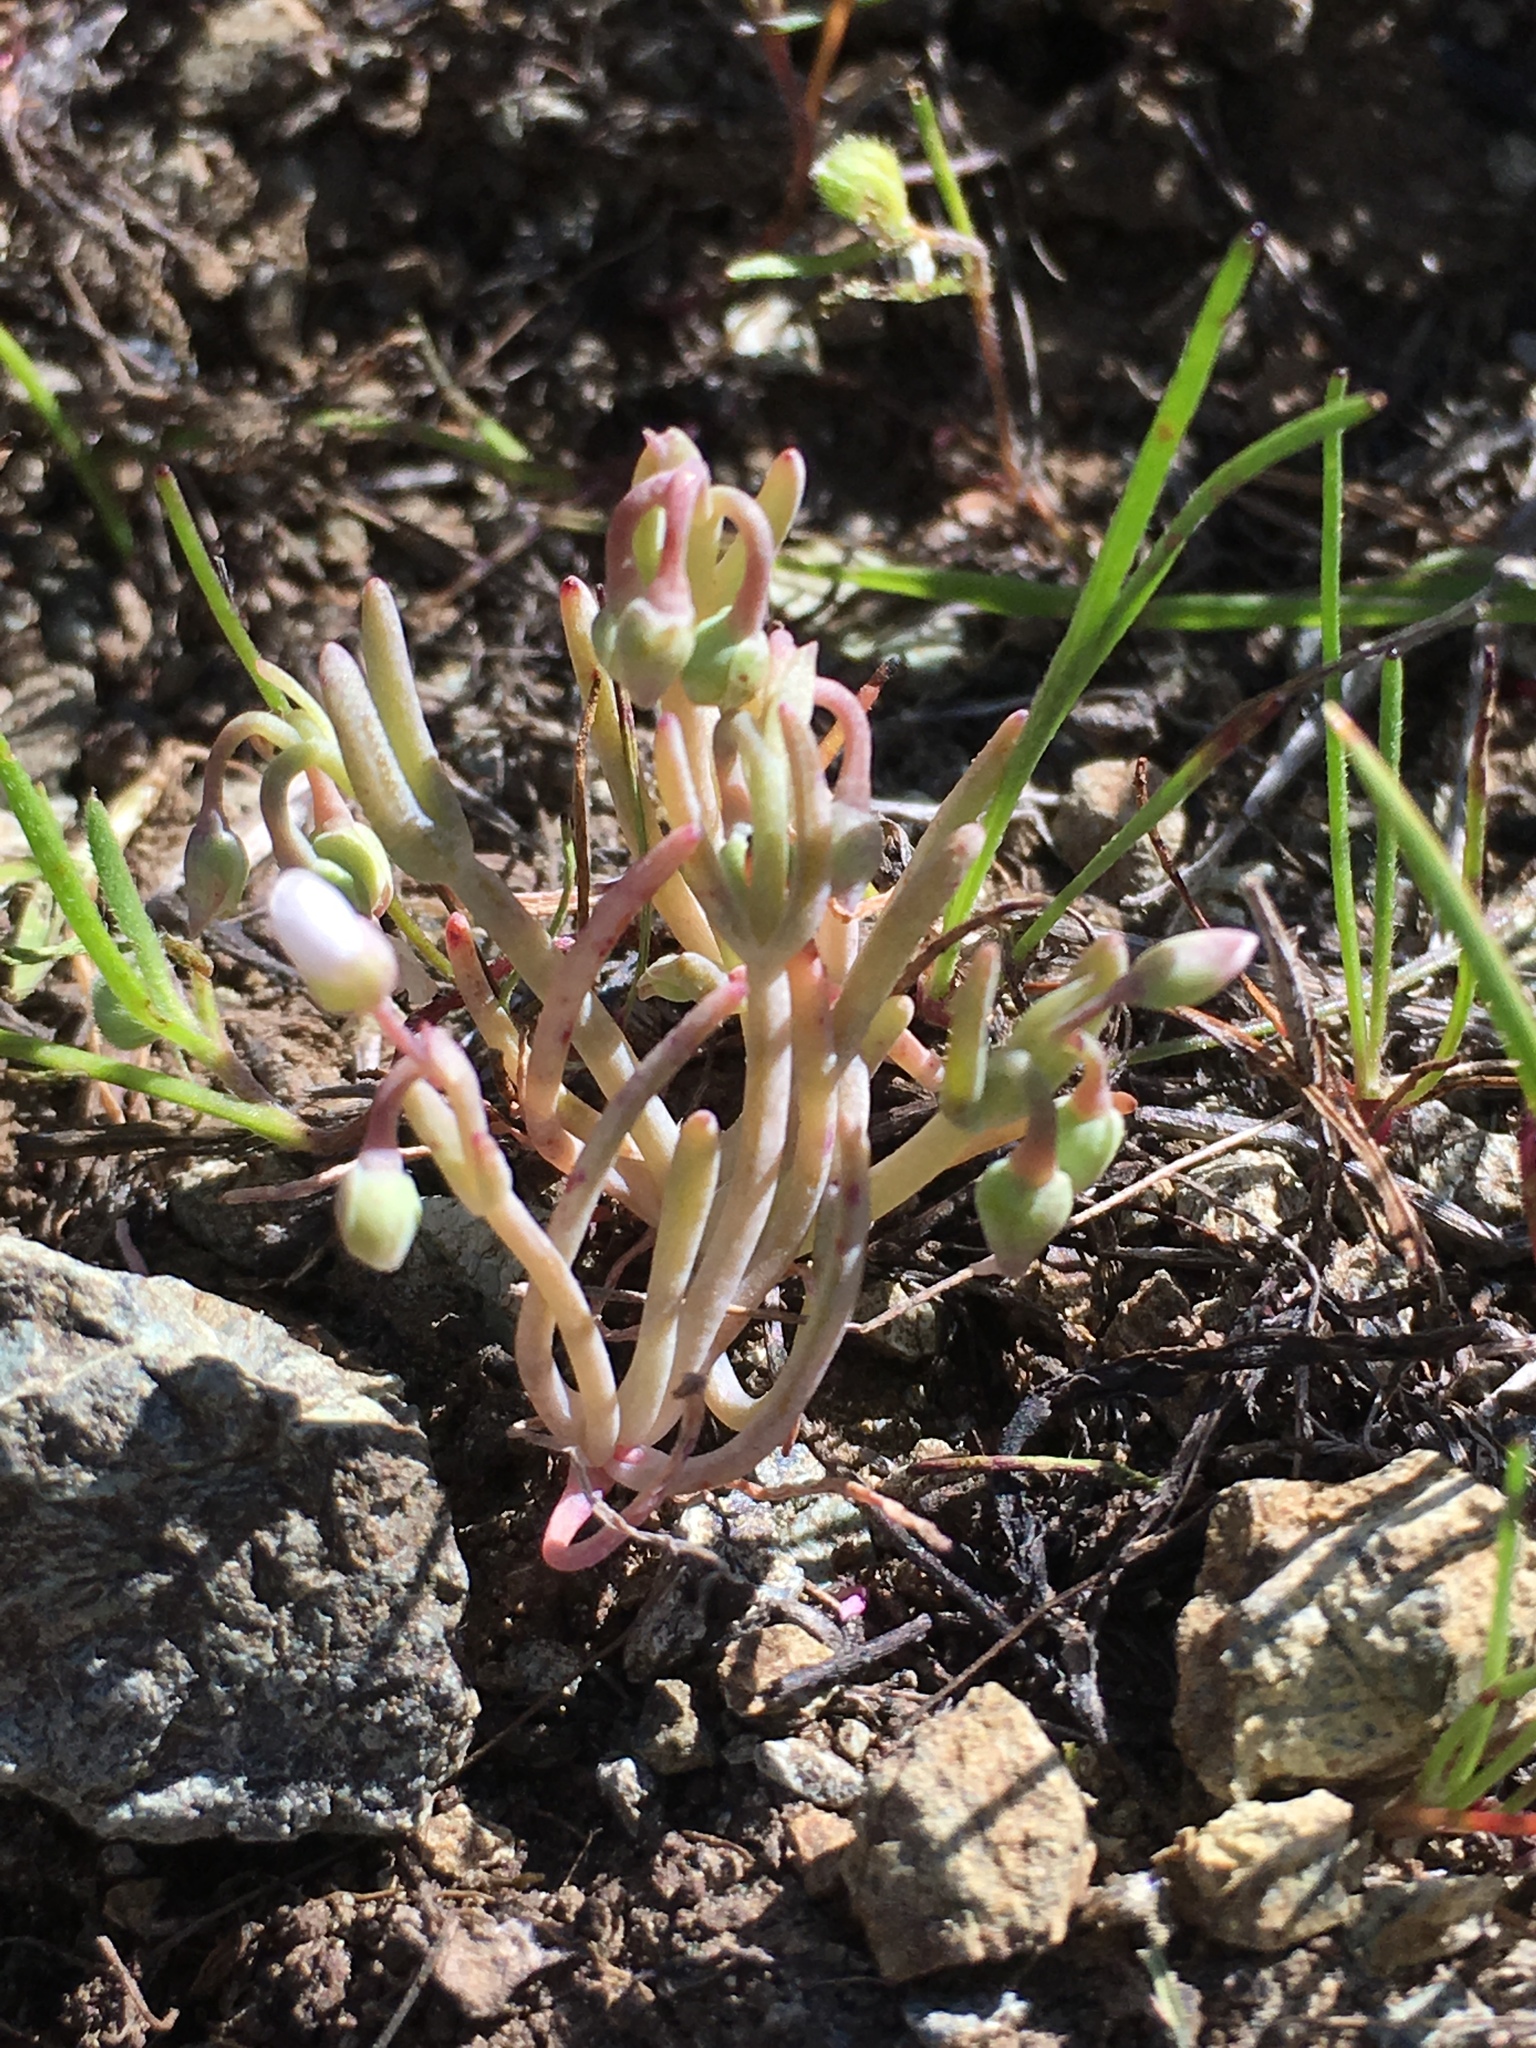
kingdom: Plantae
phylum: Tracheophyta
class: Magnoliopsida
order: Caryophyllales
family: Montiaceae
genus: Claytonia
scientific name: Claytonia exigua
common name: Pale spring beauty
